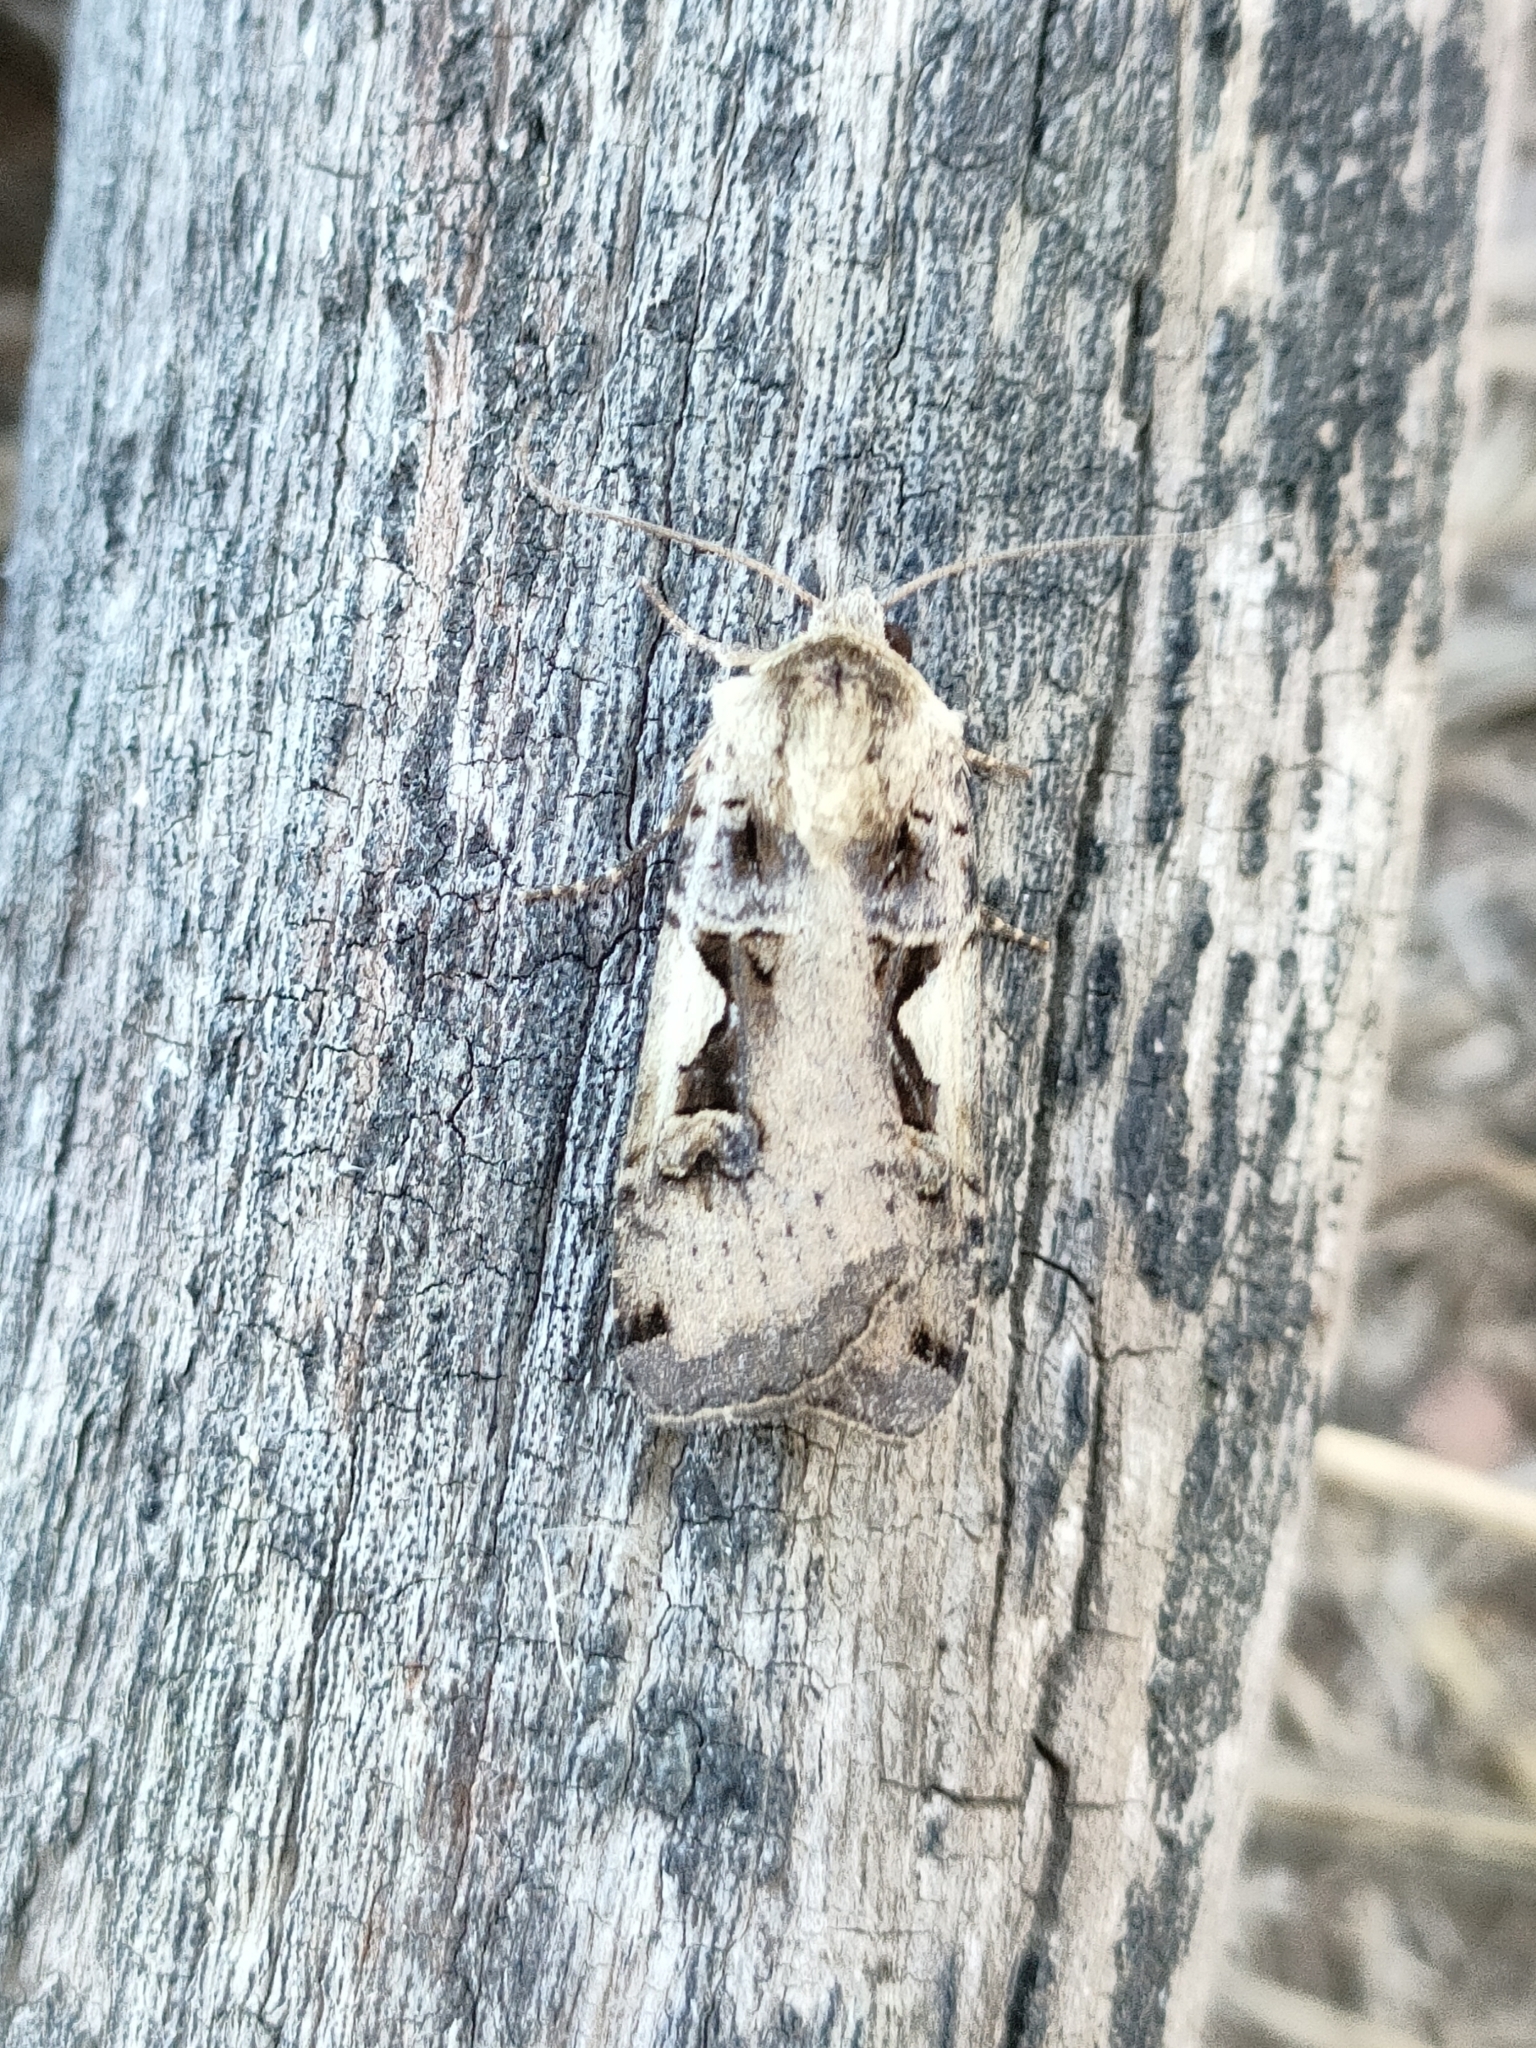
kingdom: Animalia
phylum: Arthropoda
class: Insecta
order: Lepidoptera
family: Noctuidae
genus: Xestia
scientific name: Xestia c-nigrum
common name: Setaceous hebrew character
